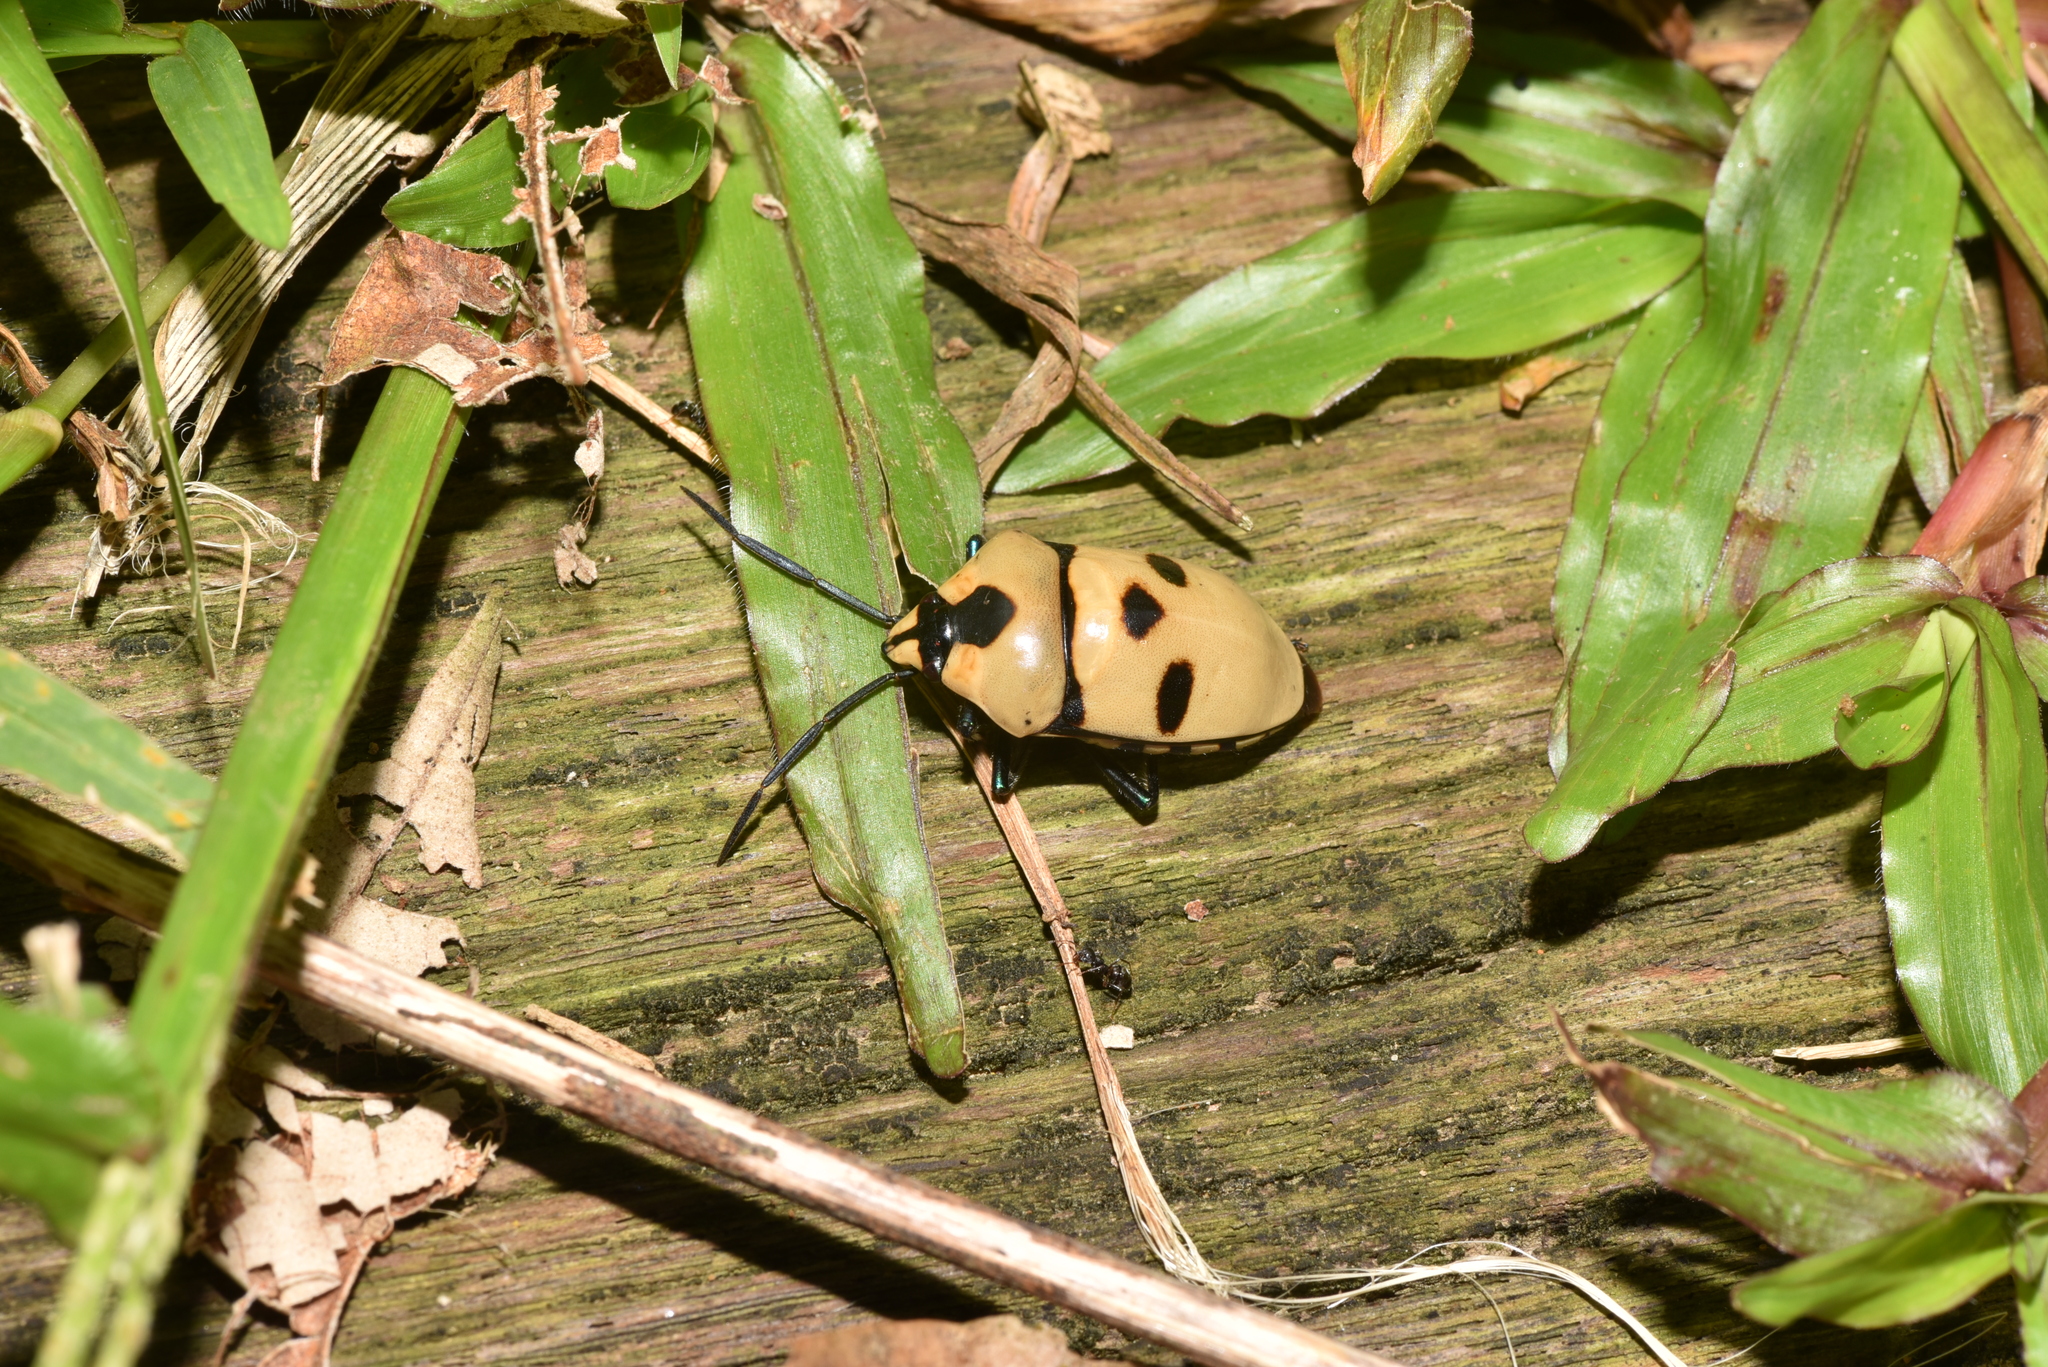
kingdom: Animalia
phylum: Arthropoda
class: Insecta
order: Hemiptera
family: Scutelleridae
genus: Eucorysses
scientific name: Eucorysses grandis
